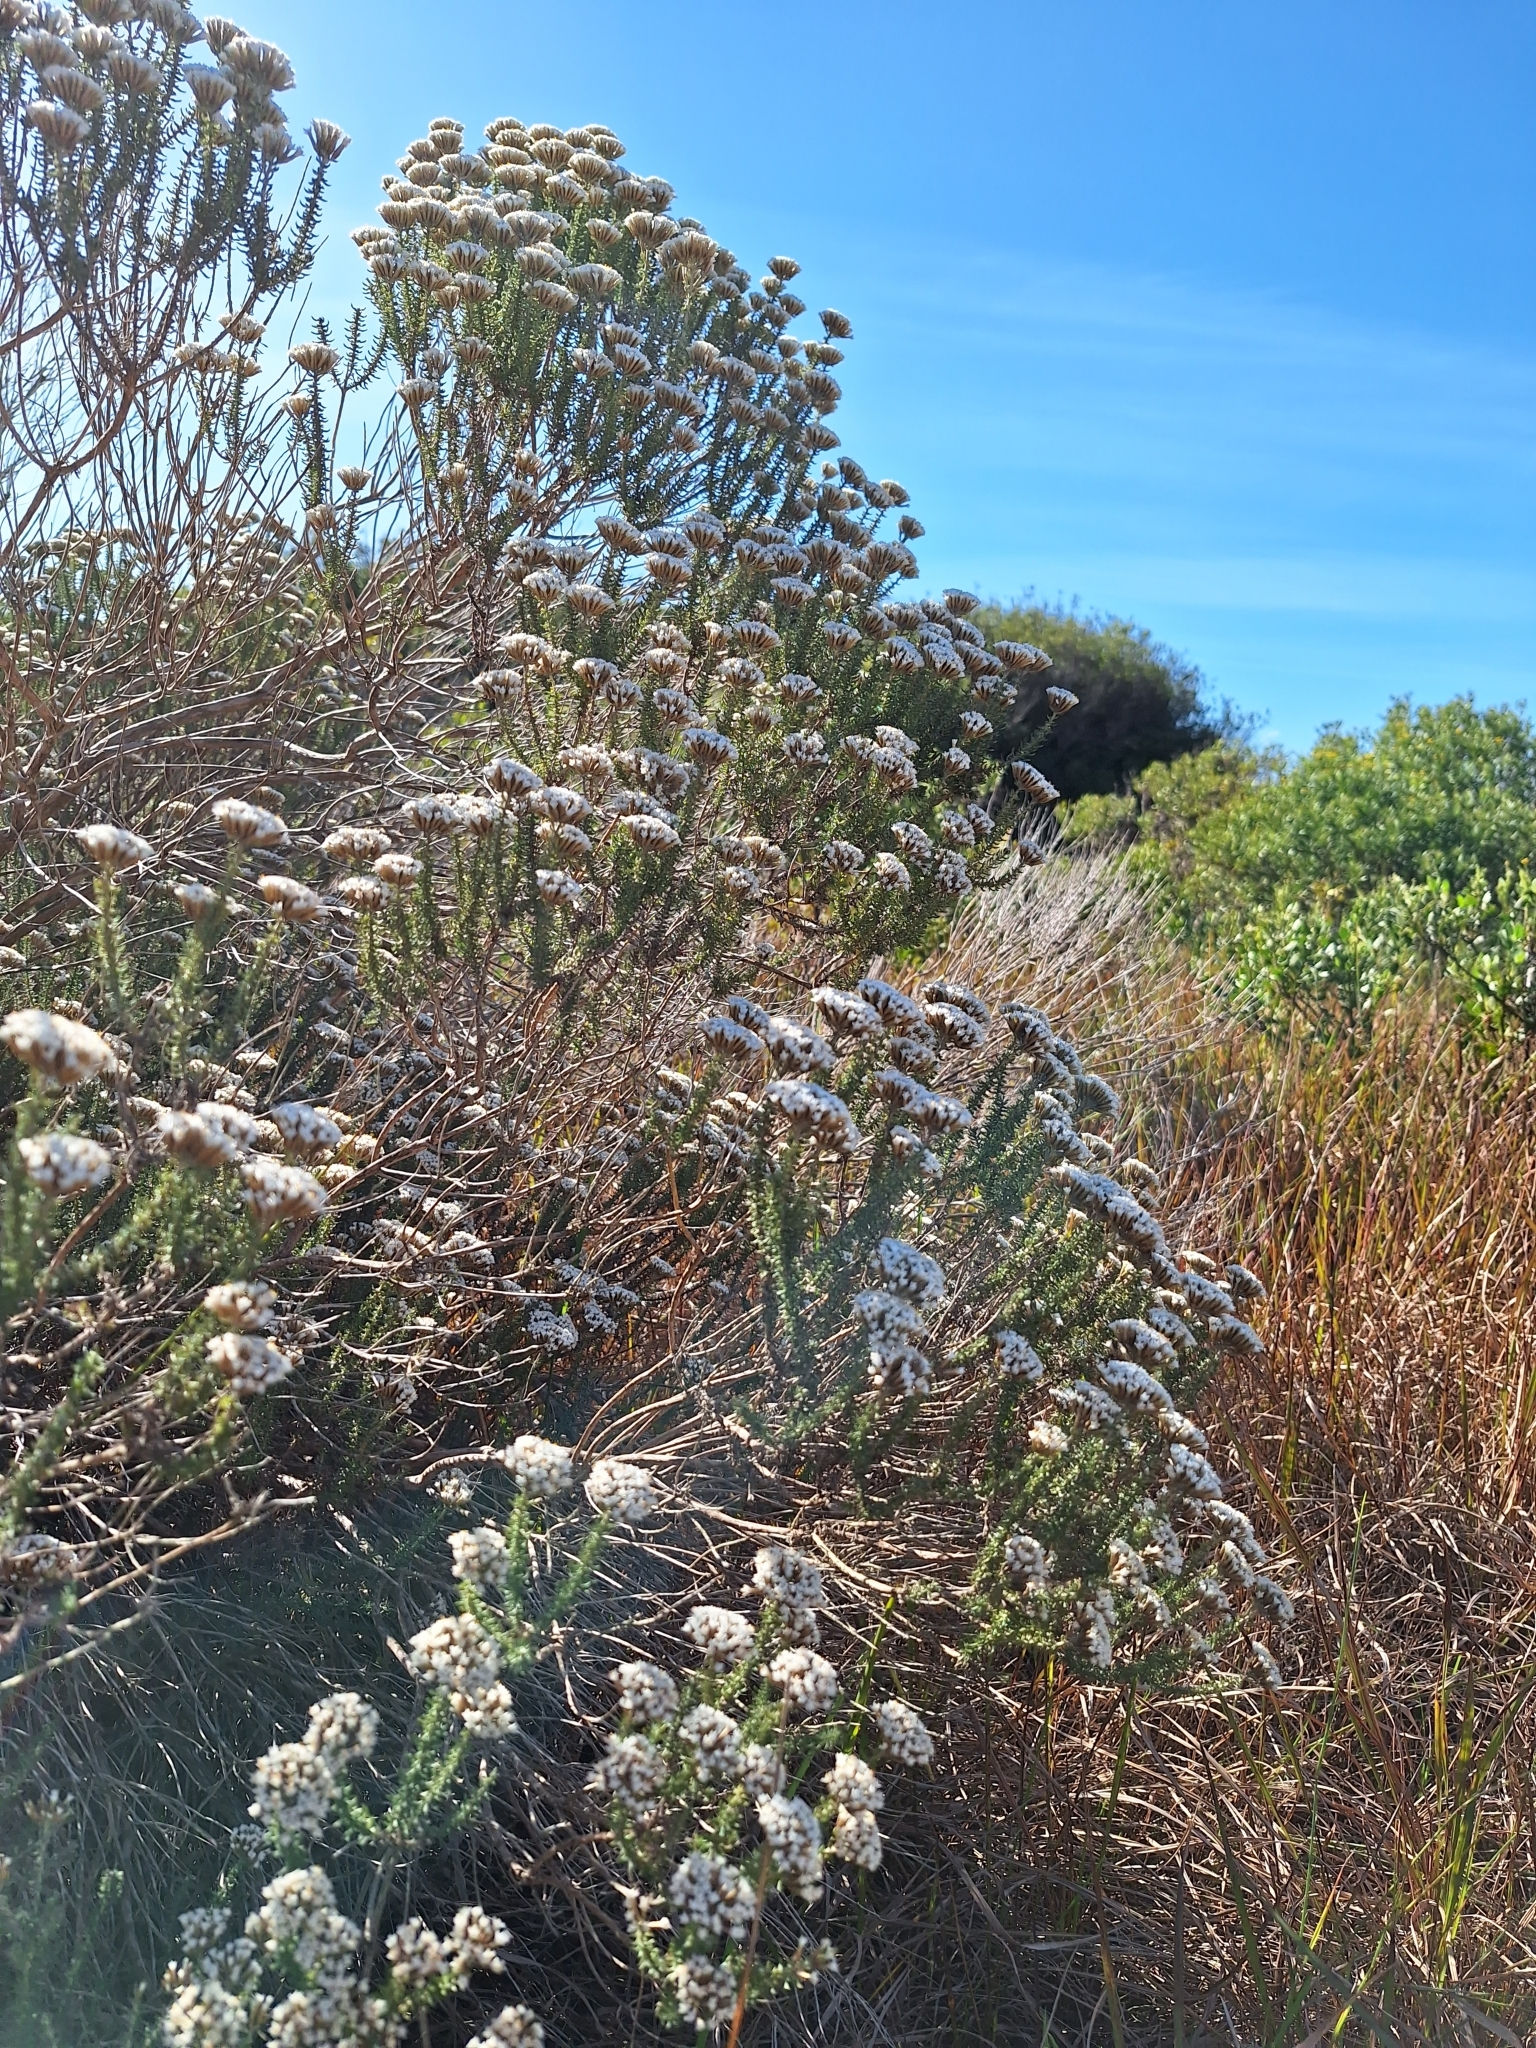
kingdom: Plantae
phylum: Tracheophyta
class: Magnoliopsida
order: Asterales
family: Asteraceae
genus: Metalasia
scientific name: Metalasia muricata
